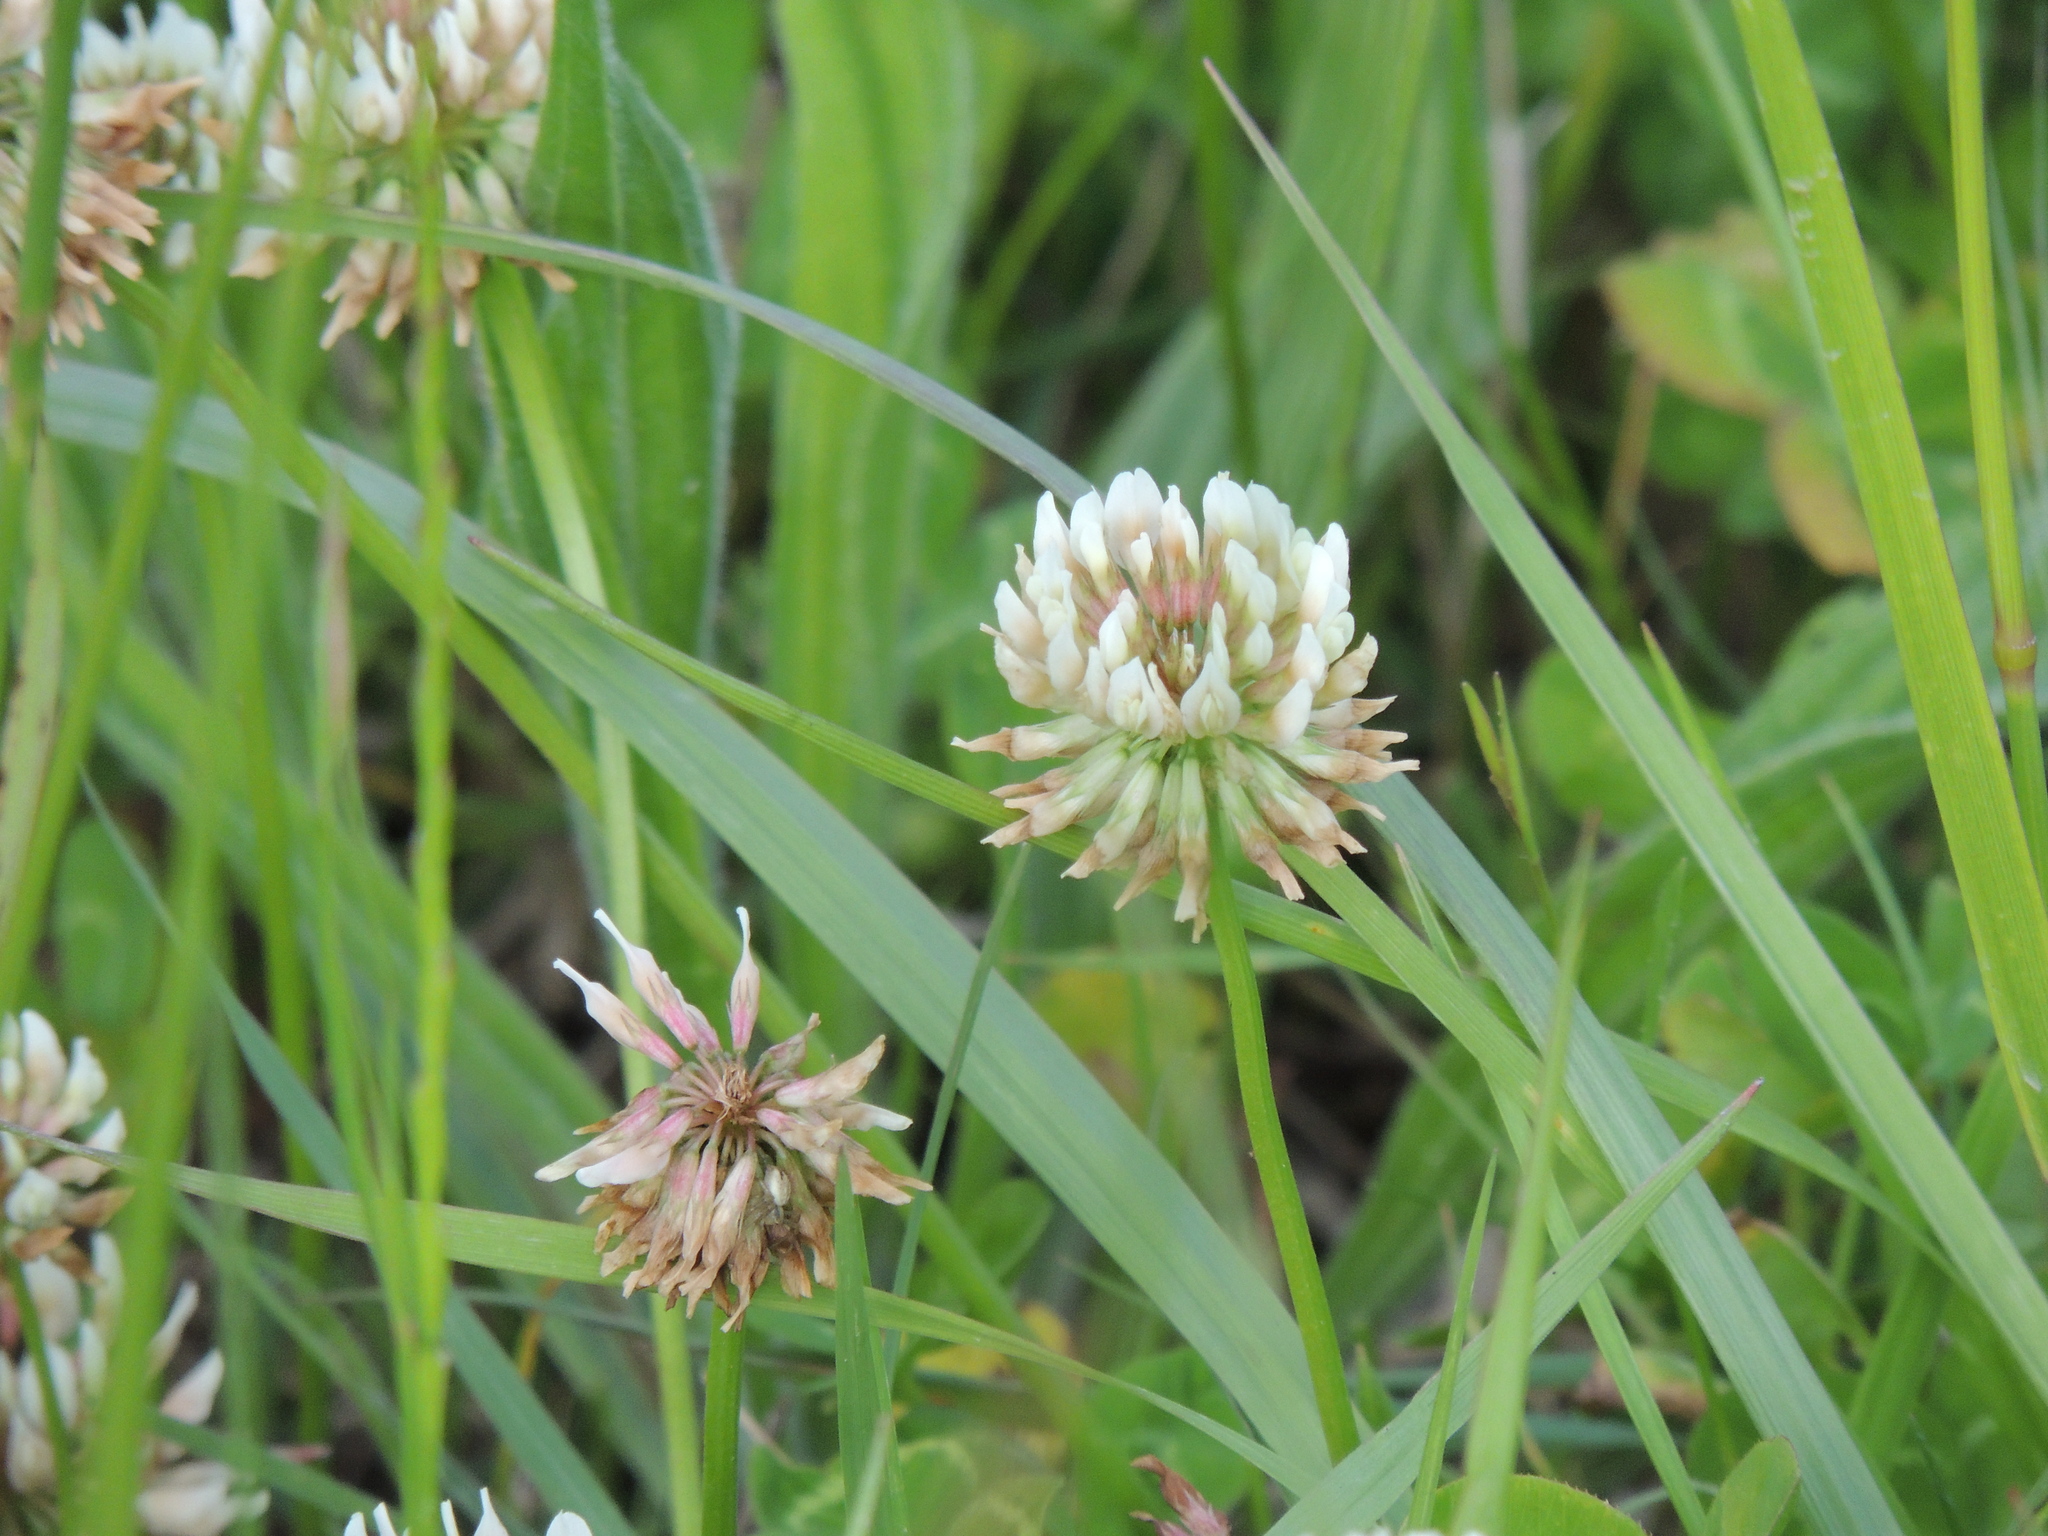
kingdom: Plantae
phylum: Tracheophyta
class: Magnoliopsida
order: Fabales
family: Fabaceae
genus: Trifolium
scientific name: Trifolium repens
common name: White clover
